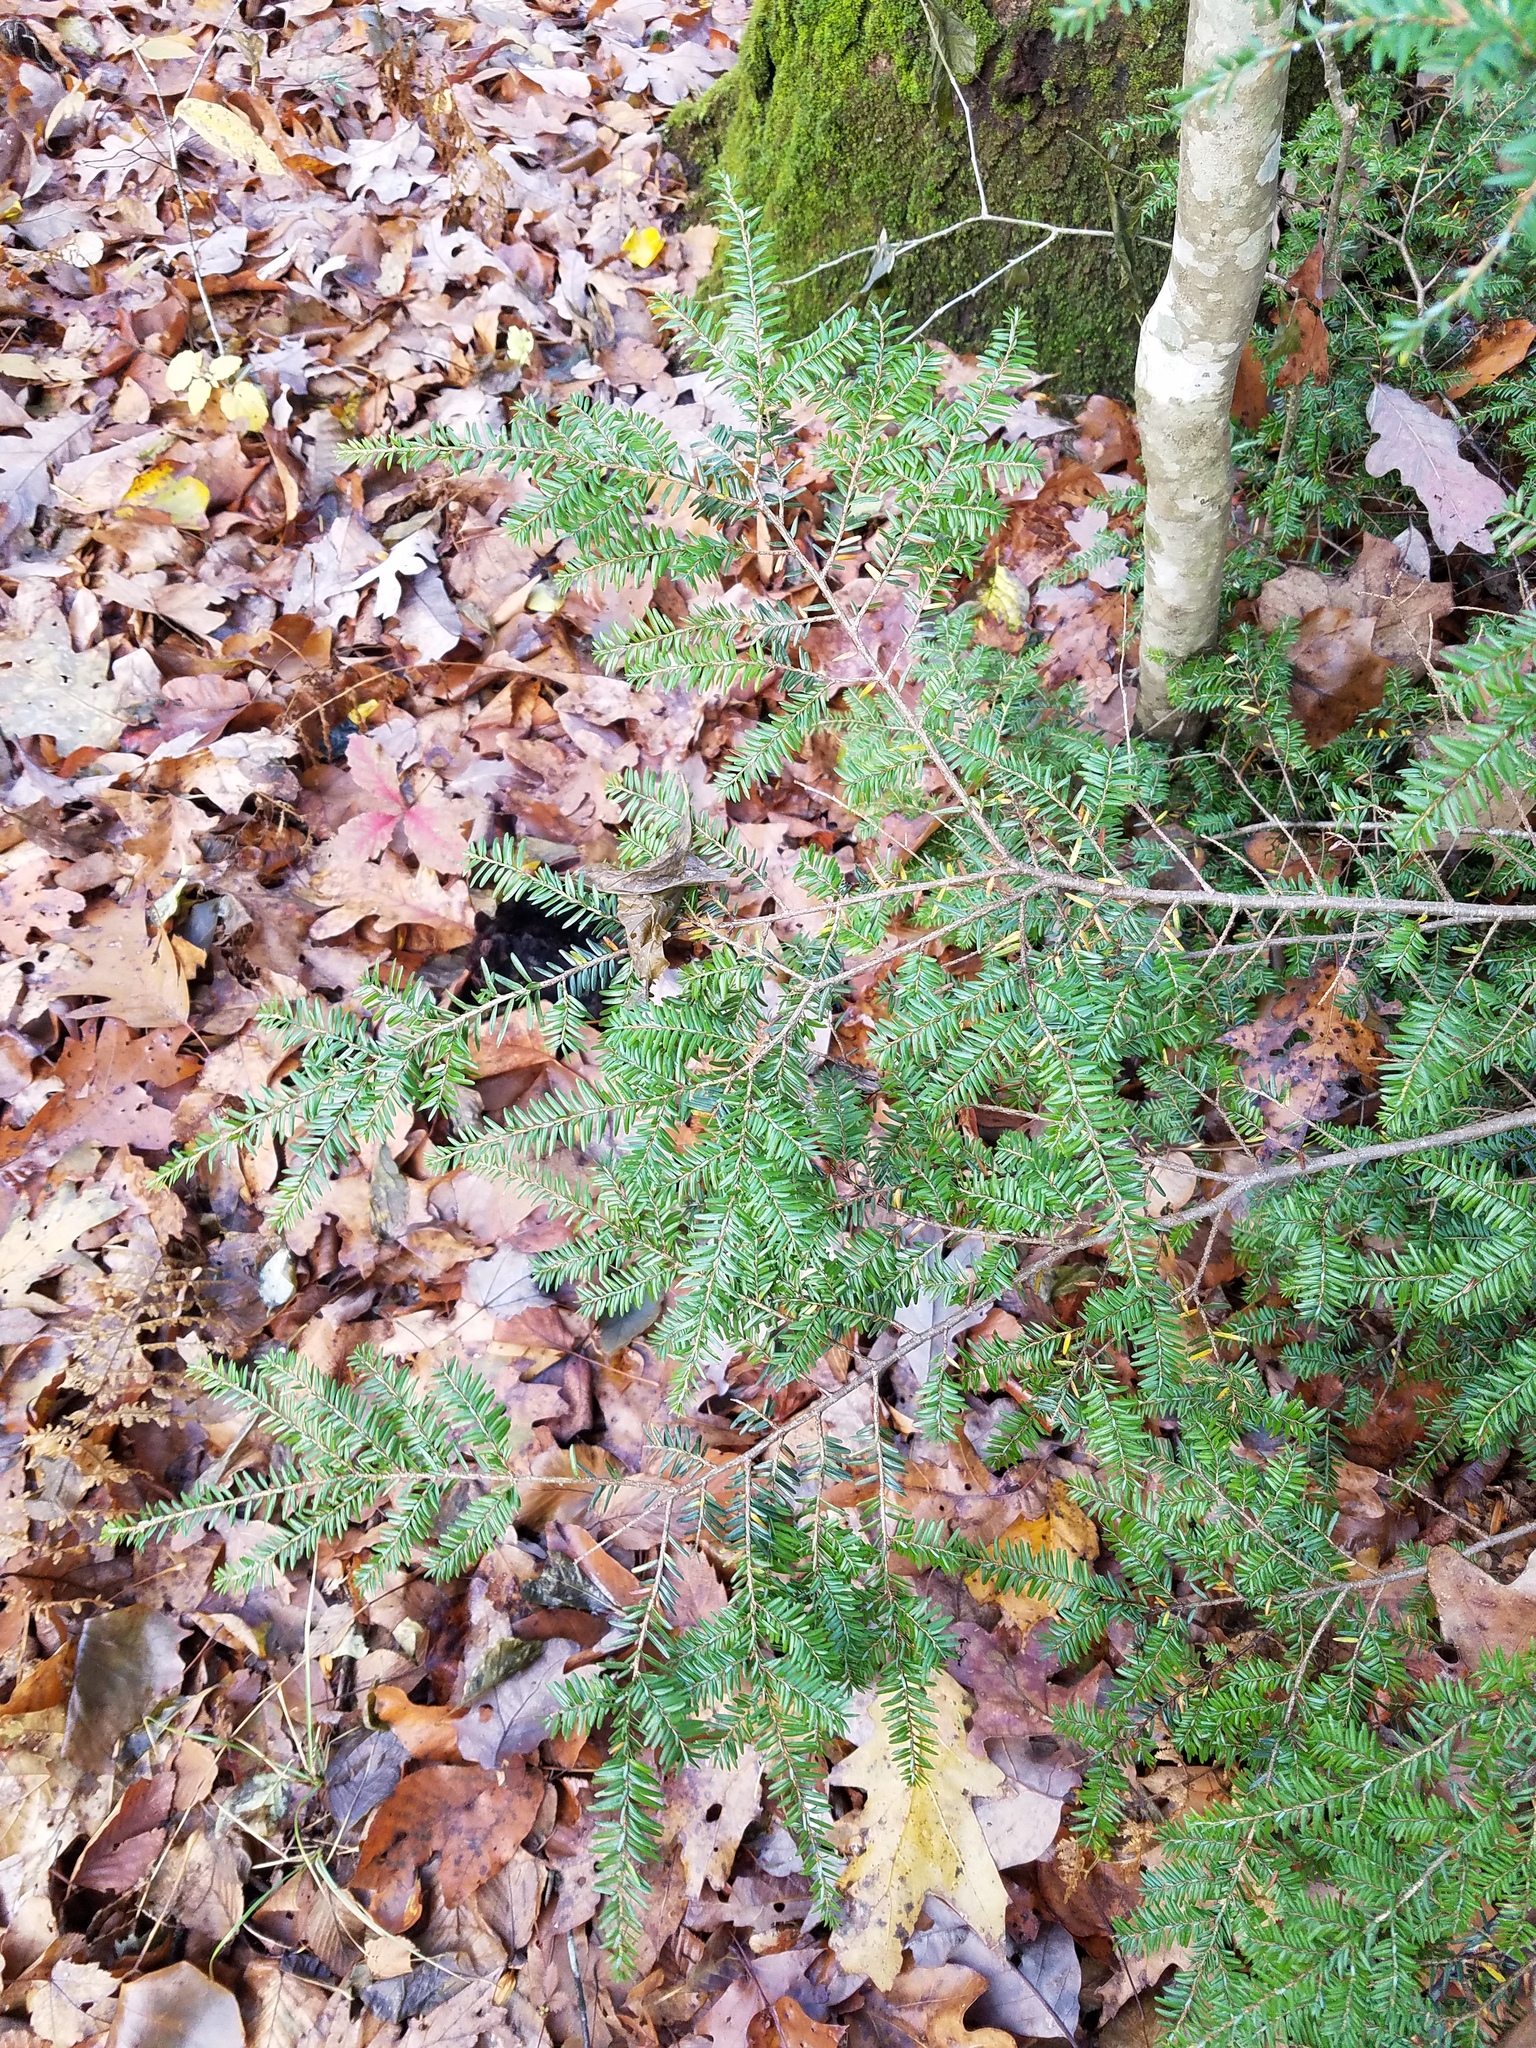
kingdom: Plantae
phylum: Tracheophyta
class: Pinopsida
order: Pinales
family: Pinaceae
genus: Tsuga
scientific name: Tsuga canadensis
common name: Eastern hemlock
